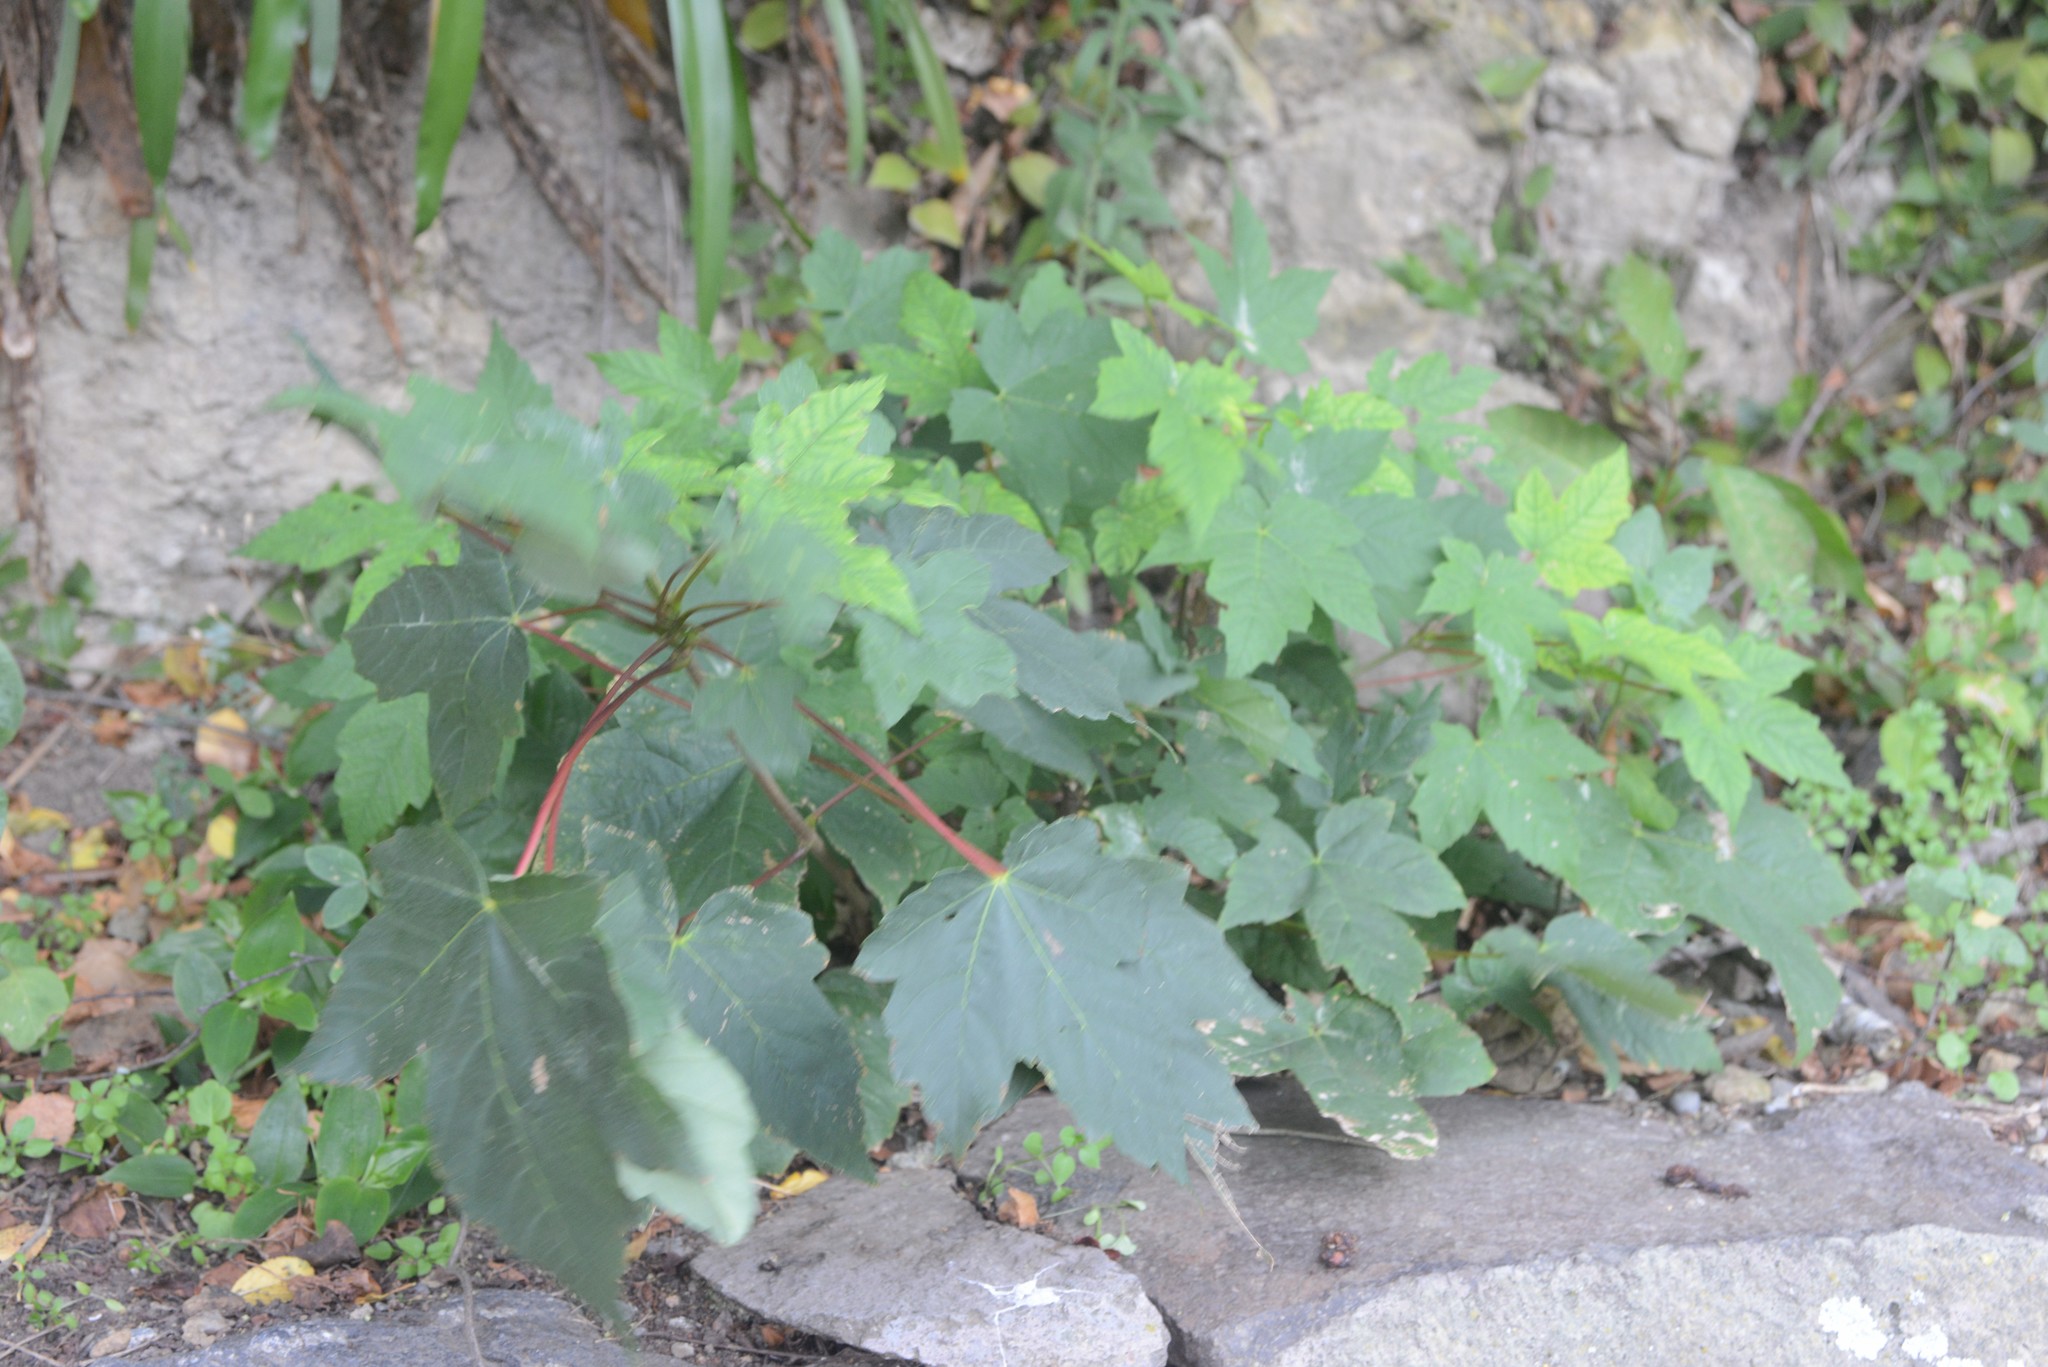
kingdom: Plantae
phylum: Tracheophyta
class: Magnoliopsida
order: Sapindales
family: Sapindaceae
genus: Acer
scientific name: Acer pseudoplatanus
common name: Sycamore
